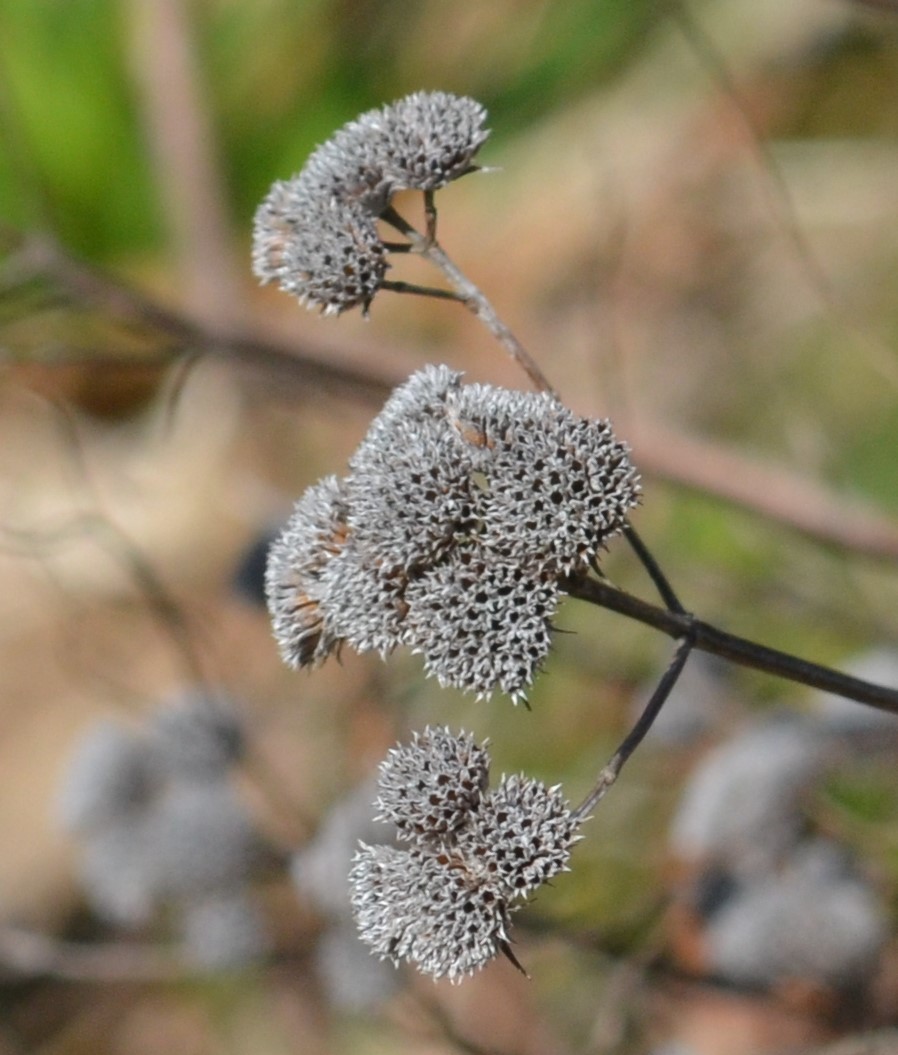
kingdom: Plantae
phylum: Tracheophyta
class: Magnoliopsida
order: Asterales
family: Asteraceae
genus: Tanacetum
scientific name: Tanacetum vulgare
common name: Common tansy
